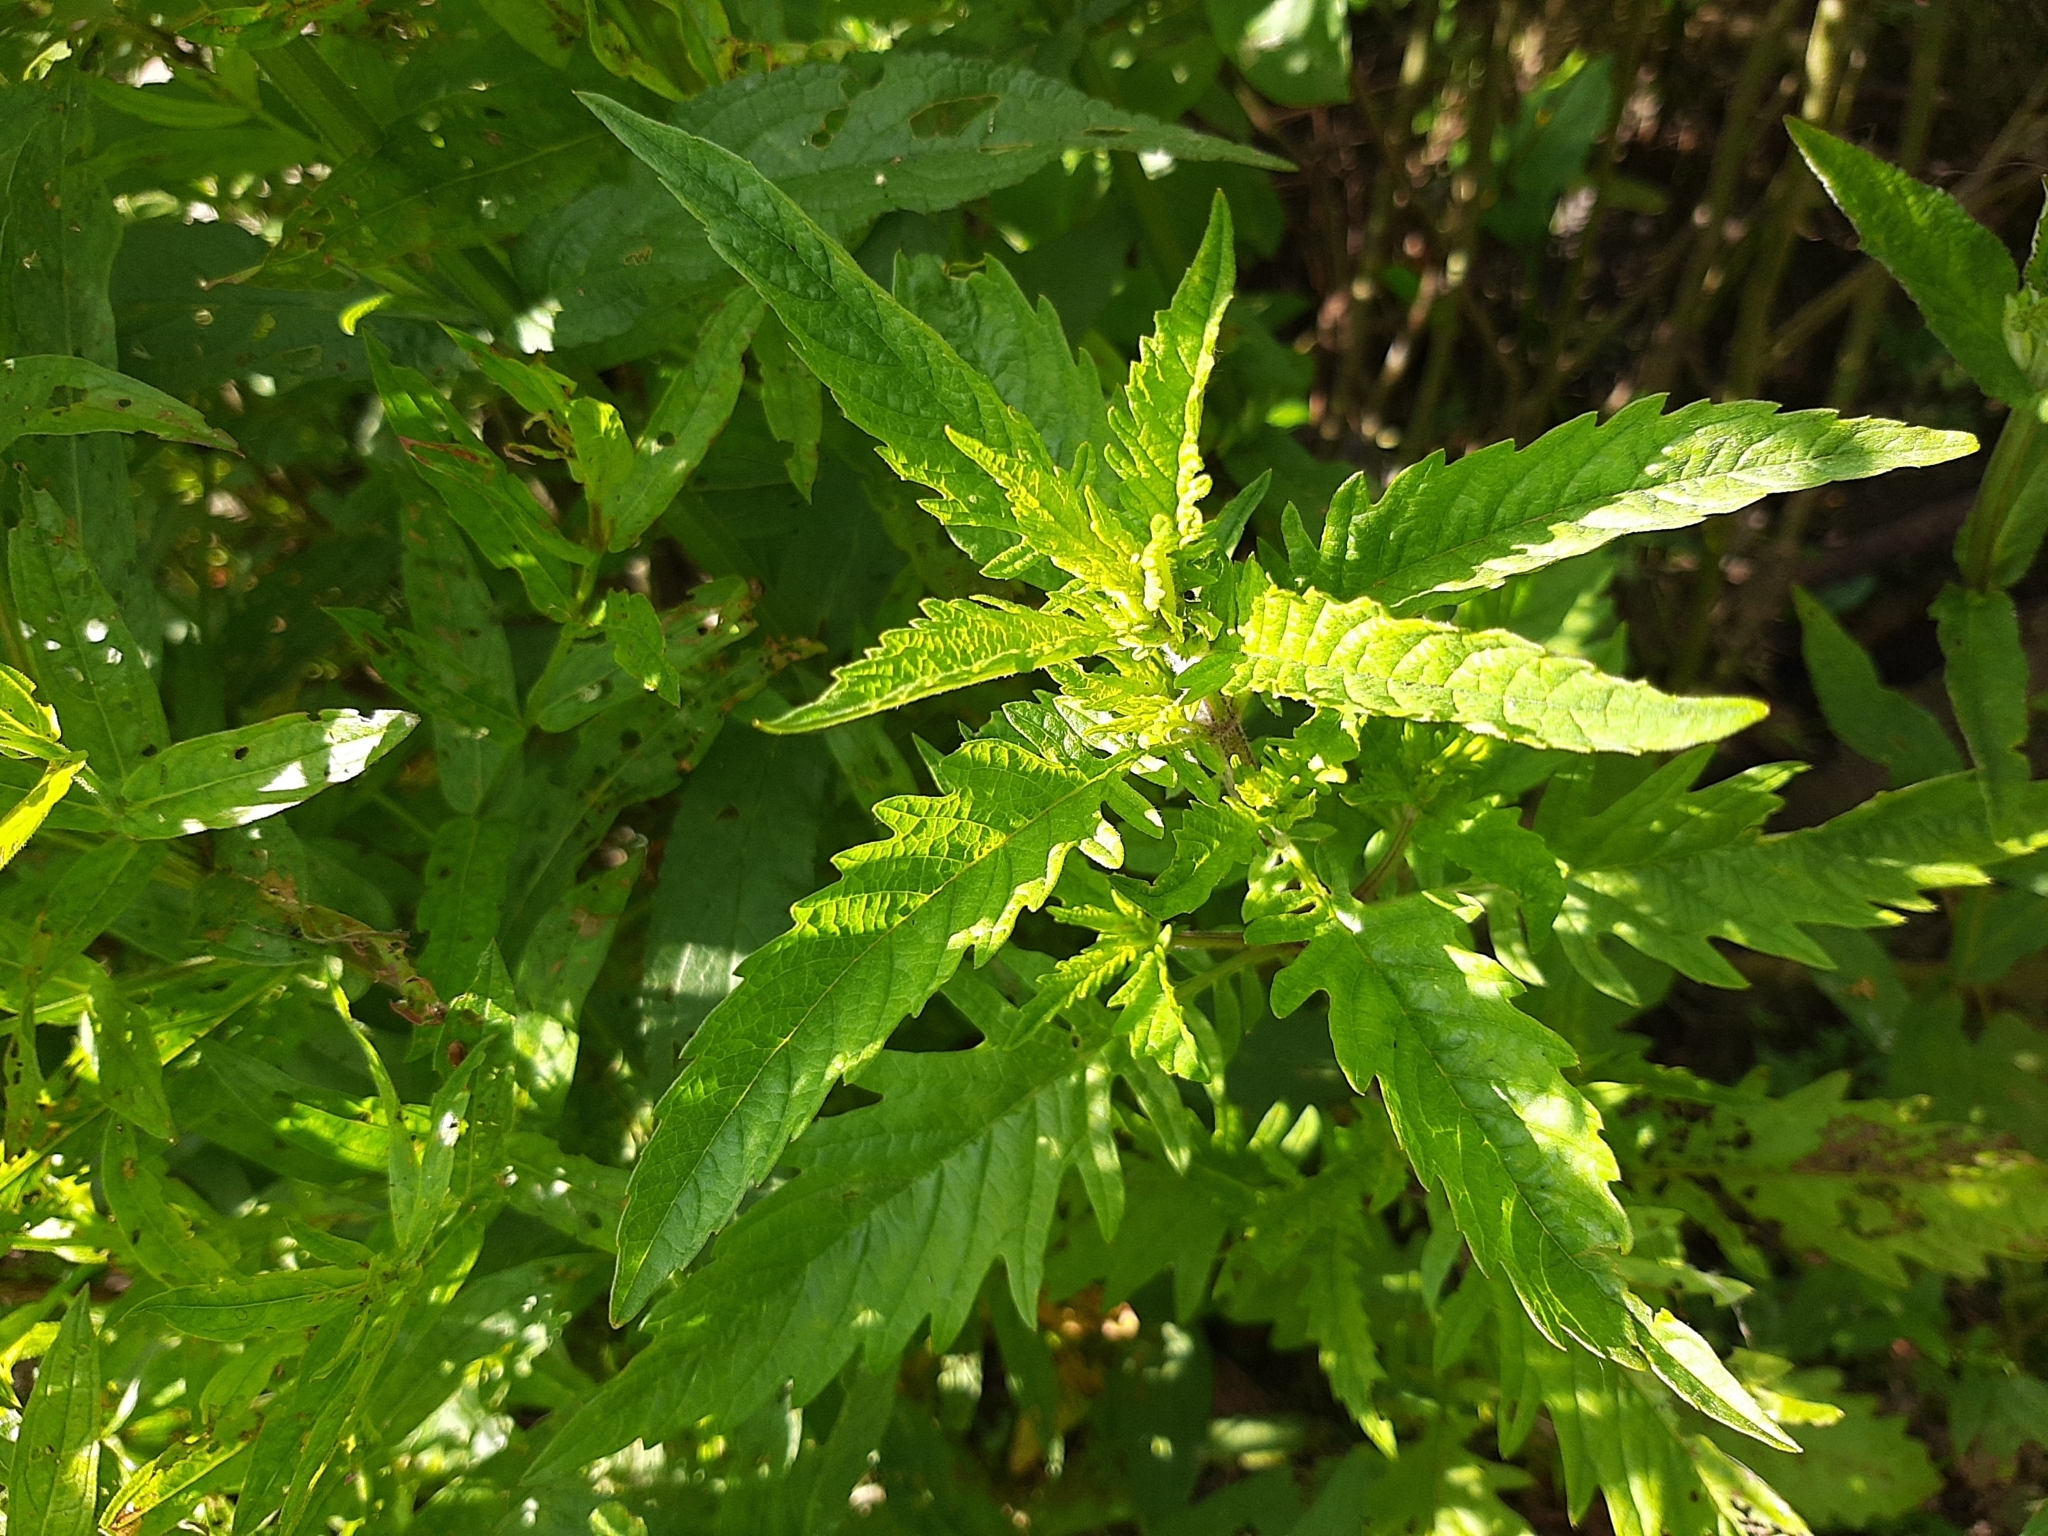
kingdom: Plantae
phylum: Tracheophyta
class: Magnoliopsida
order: Lamiales
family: Lamiaceae
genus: Lycopus
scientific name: Lycopus europaeus
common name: European bugleweed
